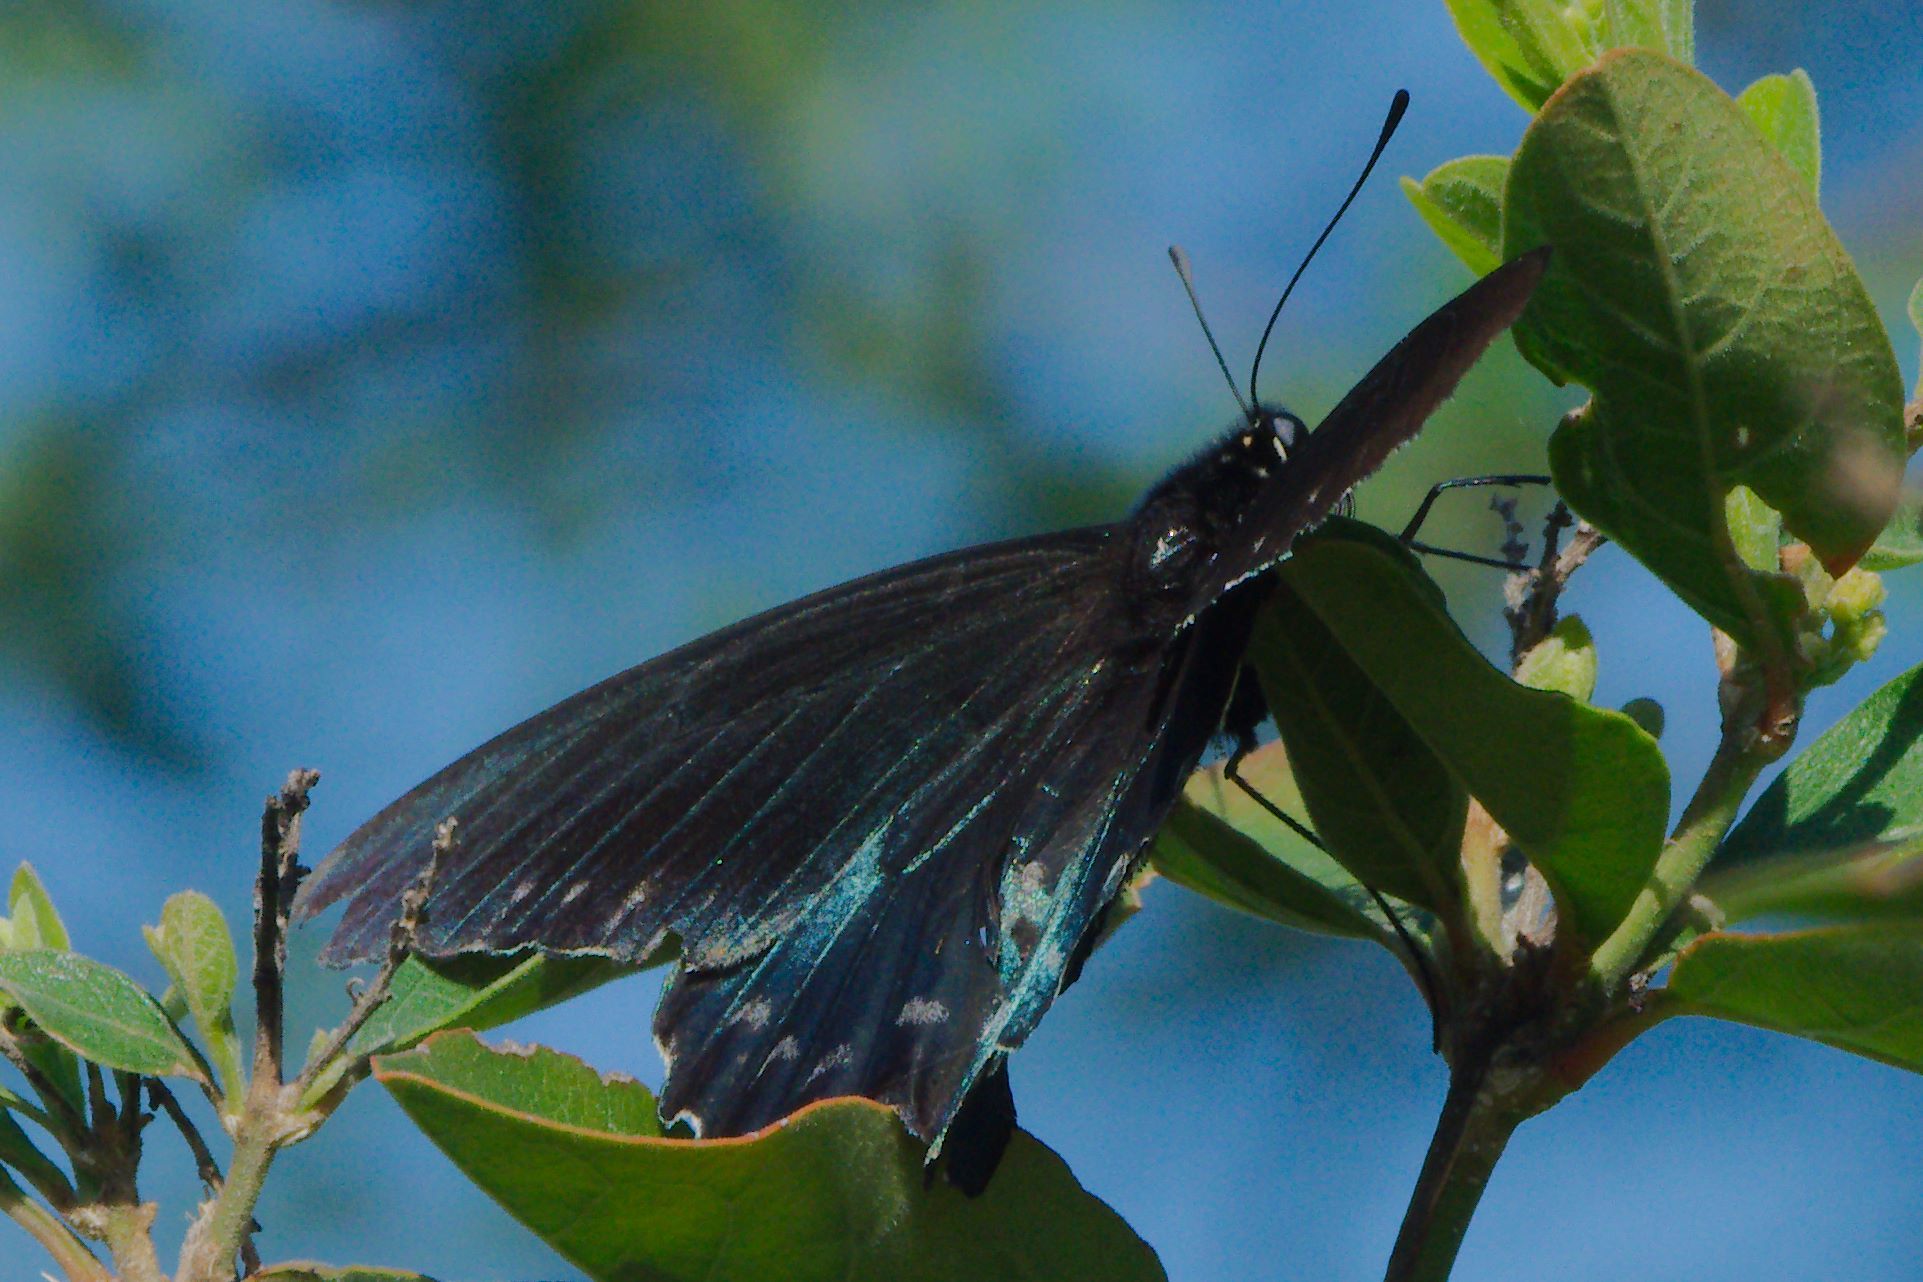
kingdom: Animalia
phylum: Arthropoda
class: Insecta
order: Lepidoptera
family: Papilionidae
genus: Battus
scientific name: Battus philenor
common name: Pipevine swallowtail
